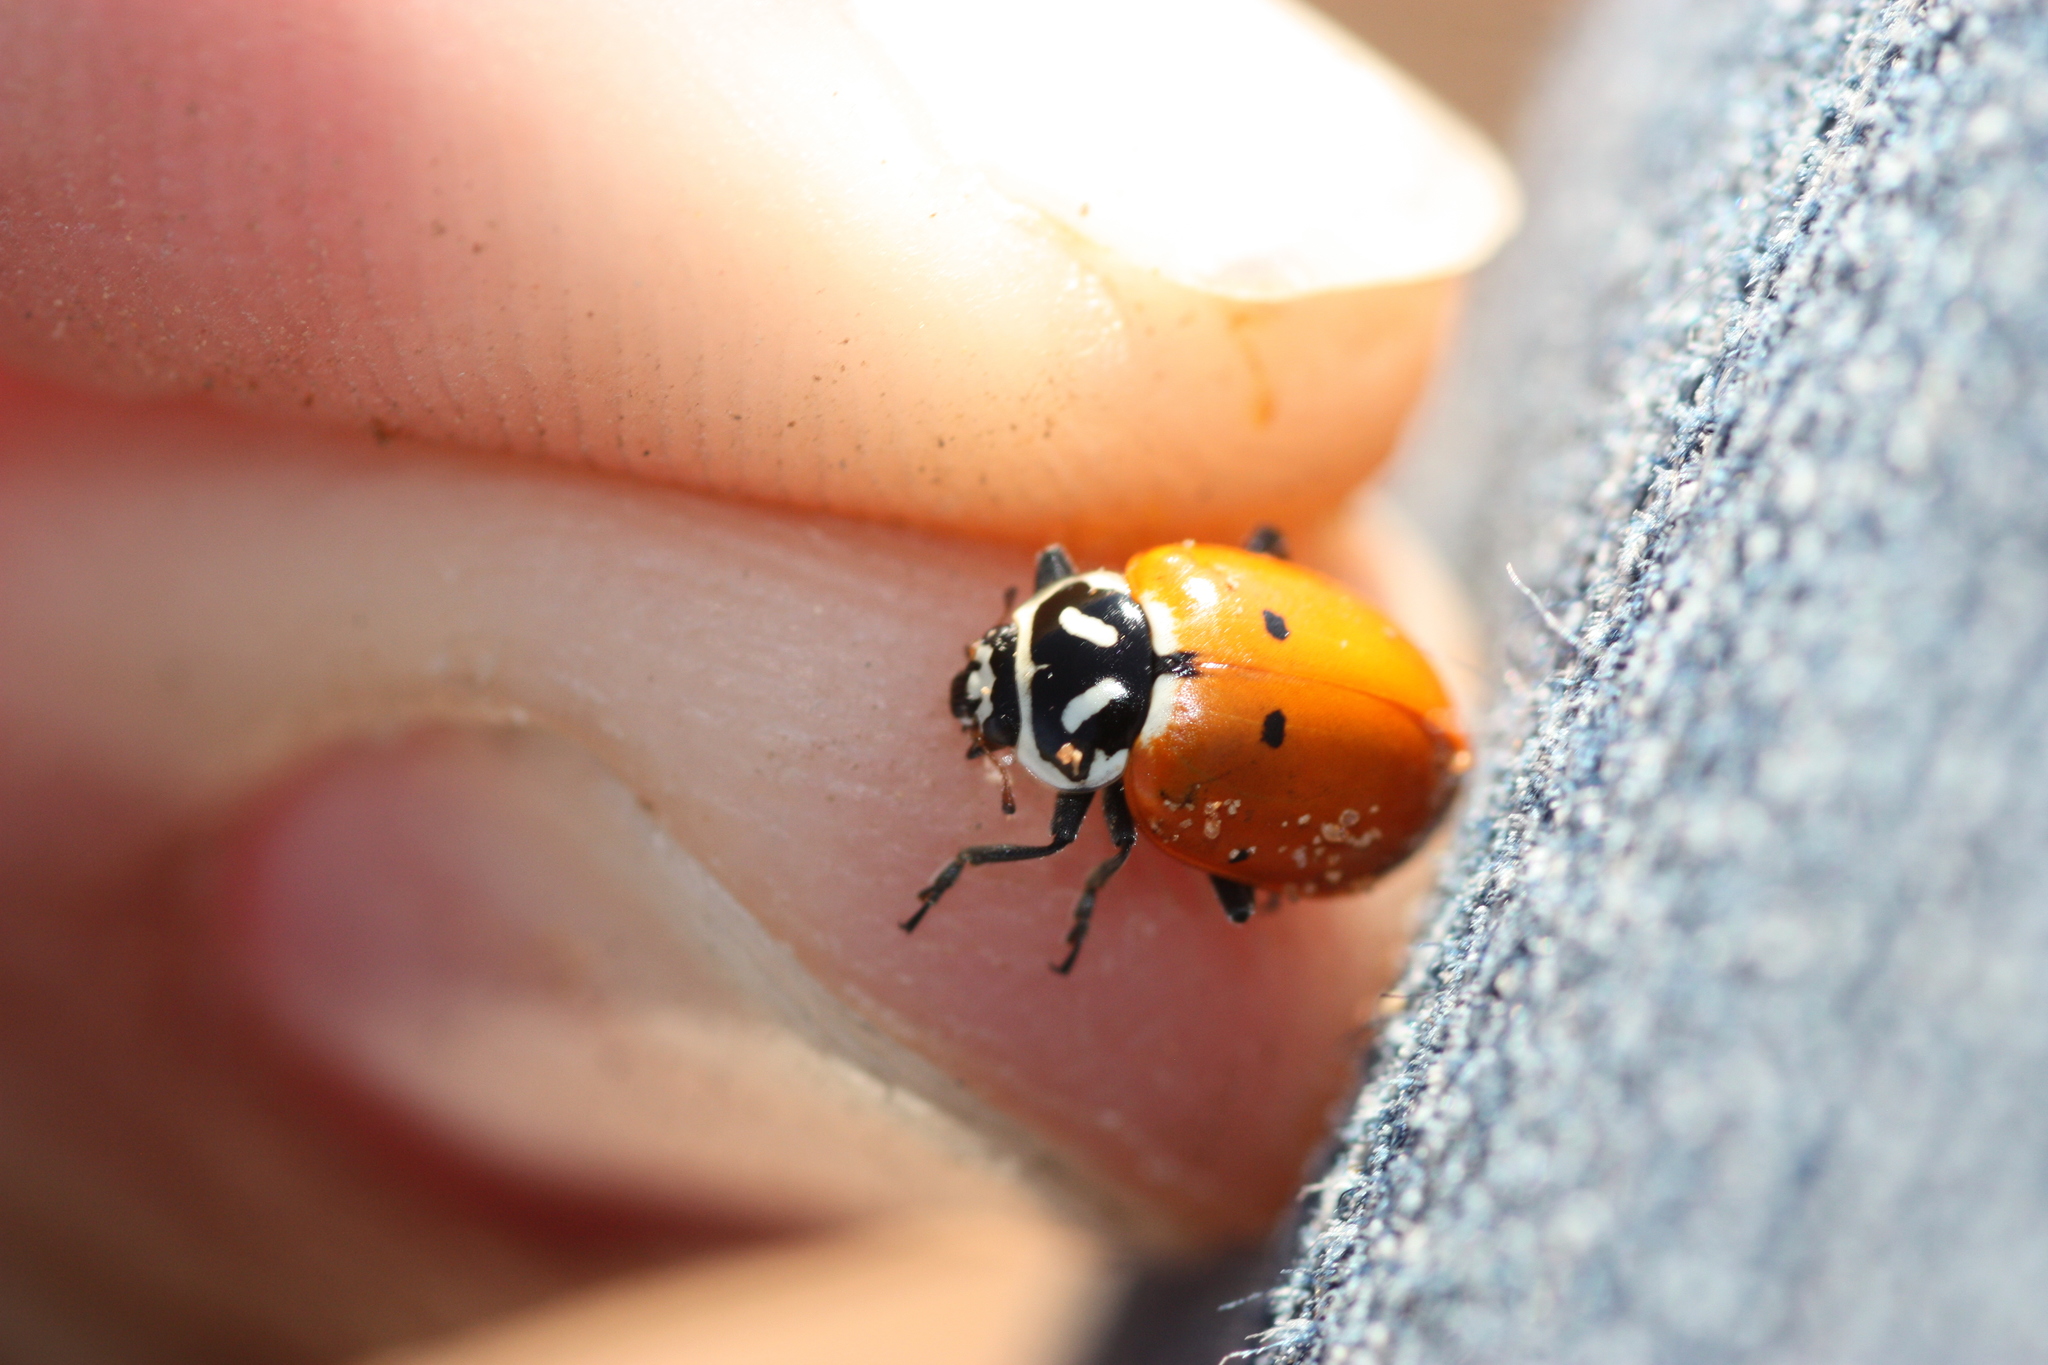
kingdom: Animalia
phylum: Arthropoda
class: Insecta
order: Coleoptera
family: Coccinellidae
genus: Hippodamia
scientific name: Hippodamia convergens
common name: Convergent lady beetle
